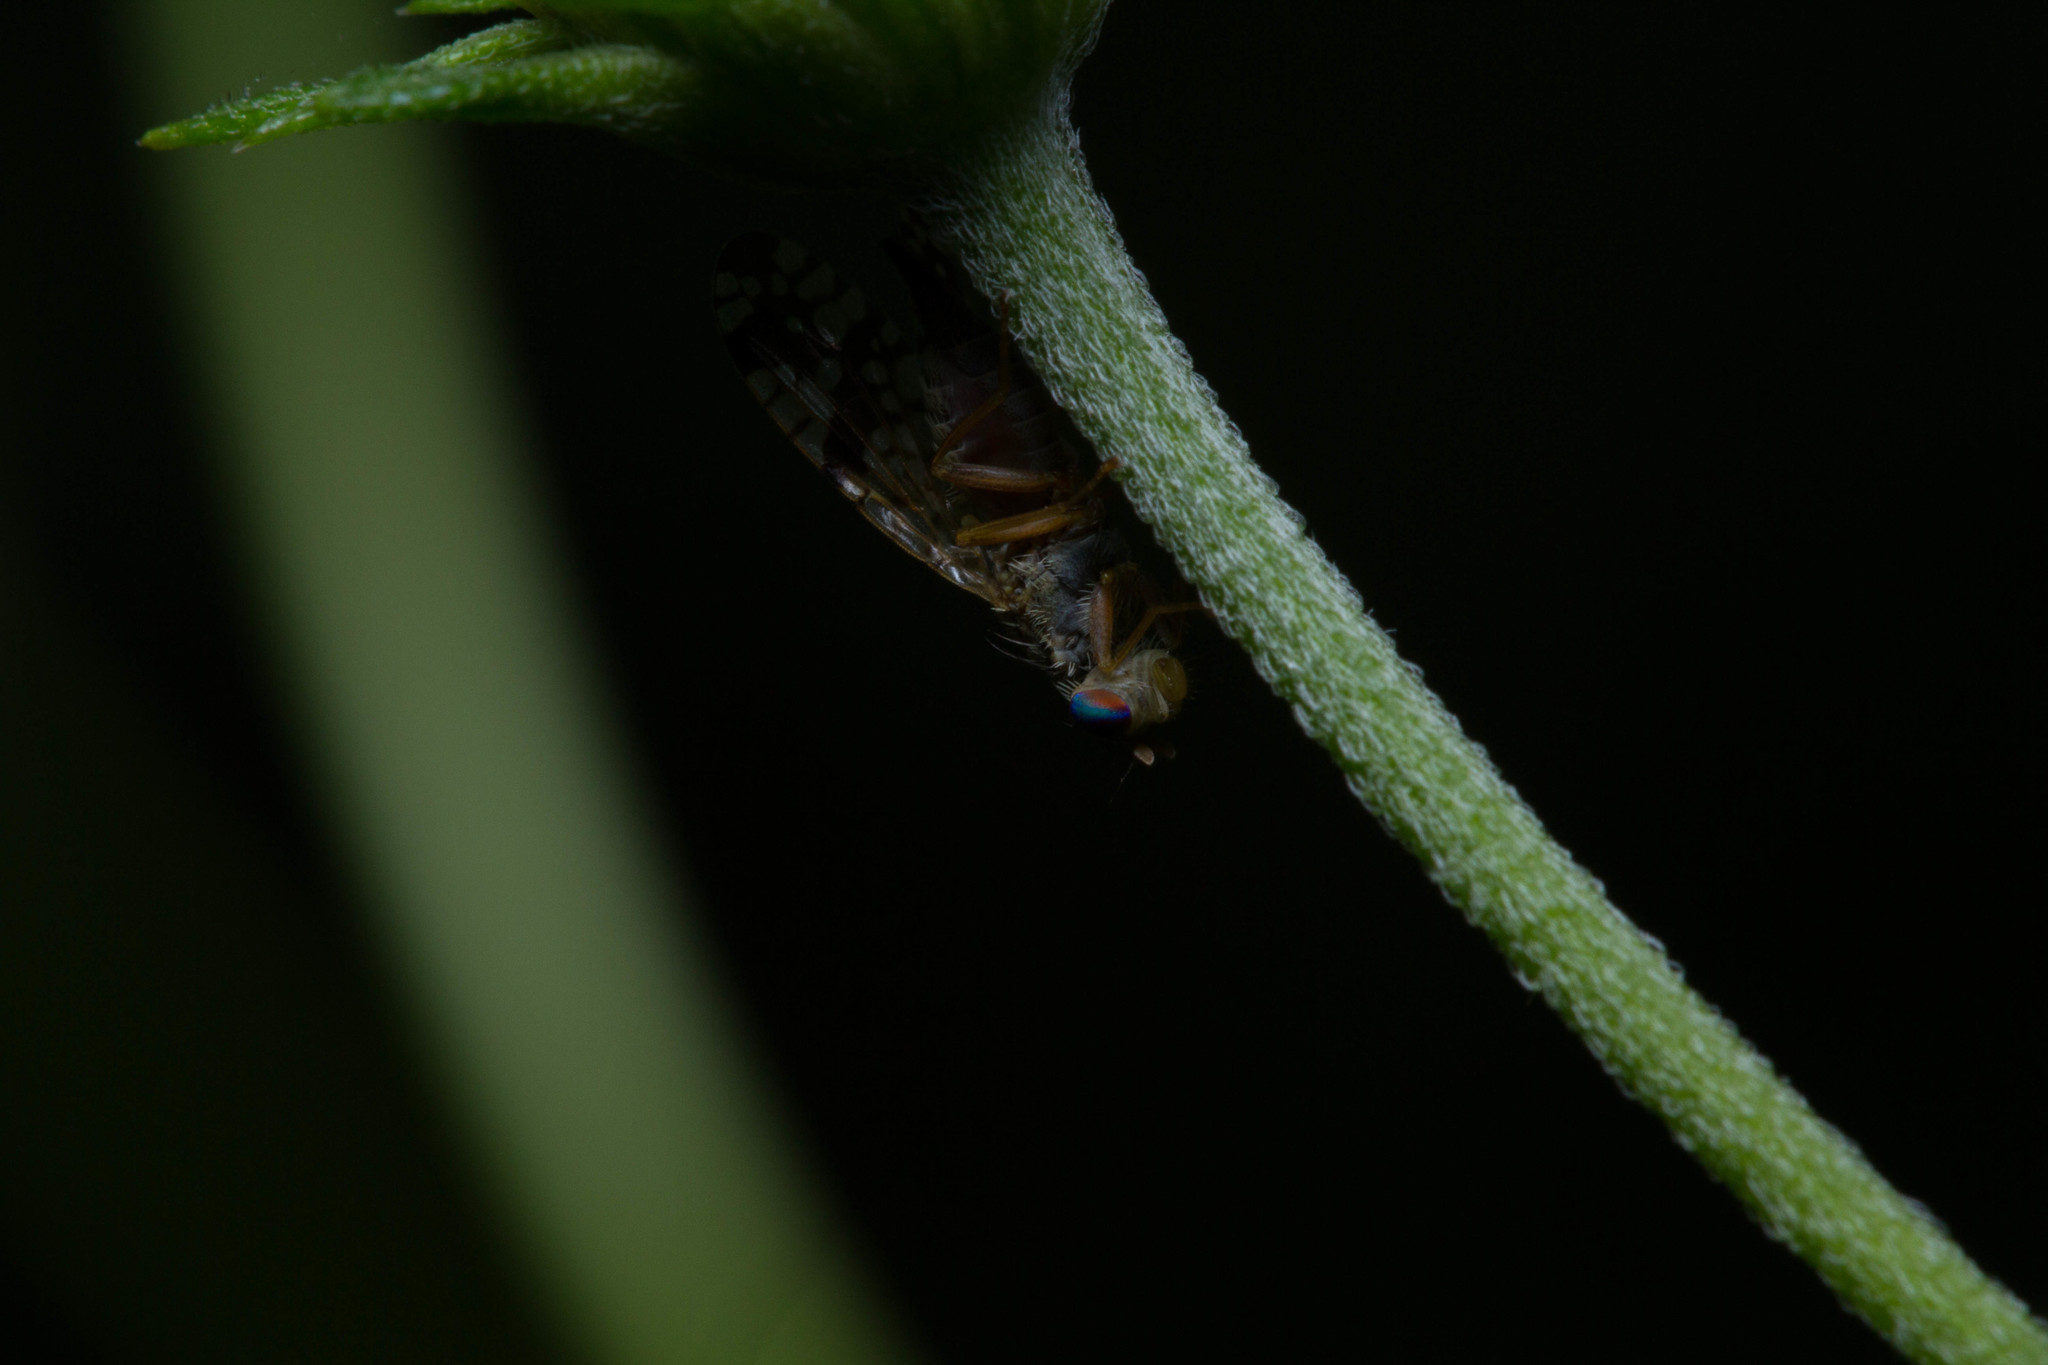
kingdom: Animalia
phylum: Arthropoda
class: Insecta
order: Diptera
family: Tephritidae
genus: Neotephritis
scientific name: Neotephritis finalis
